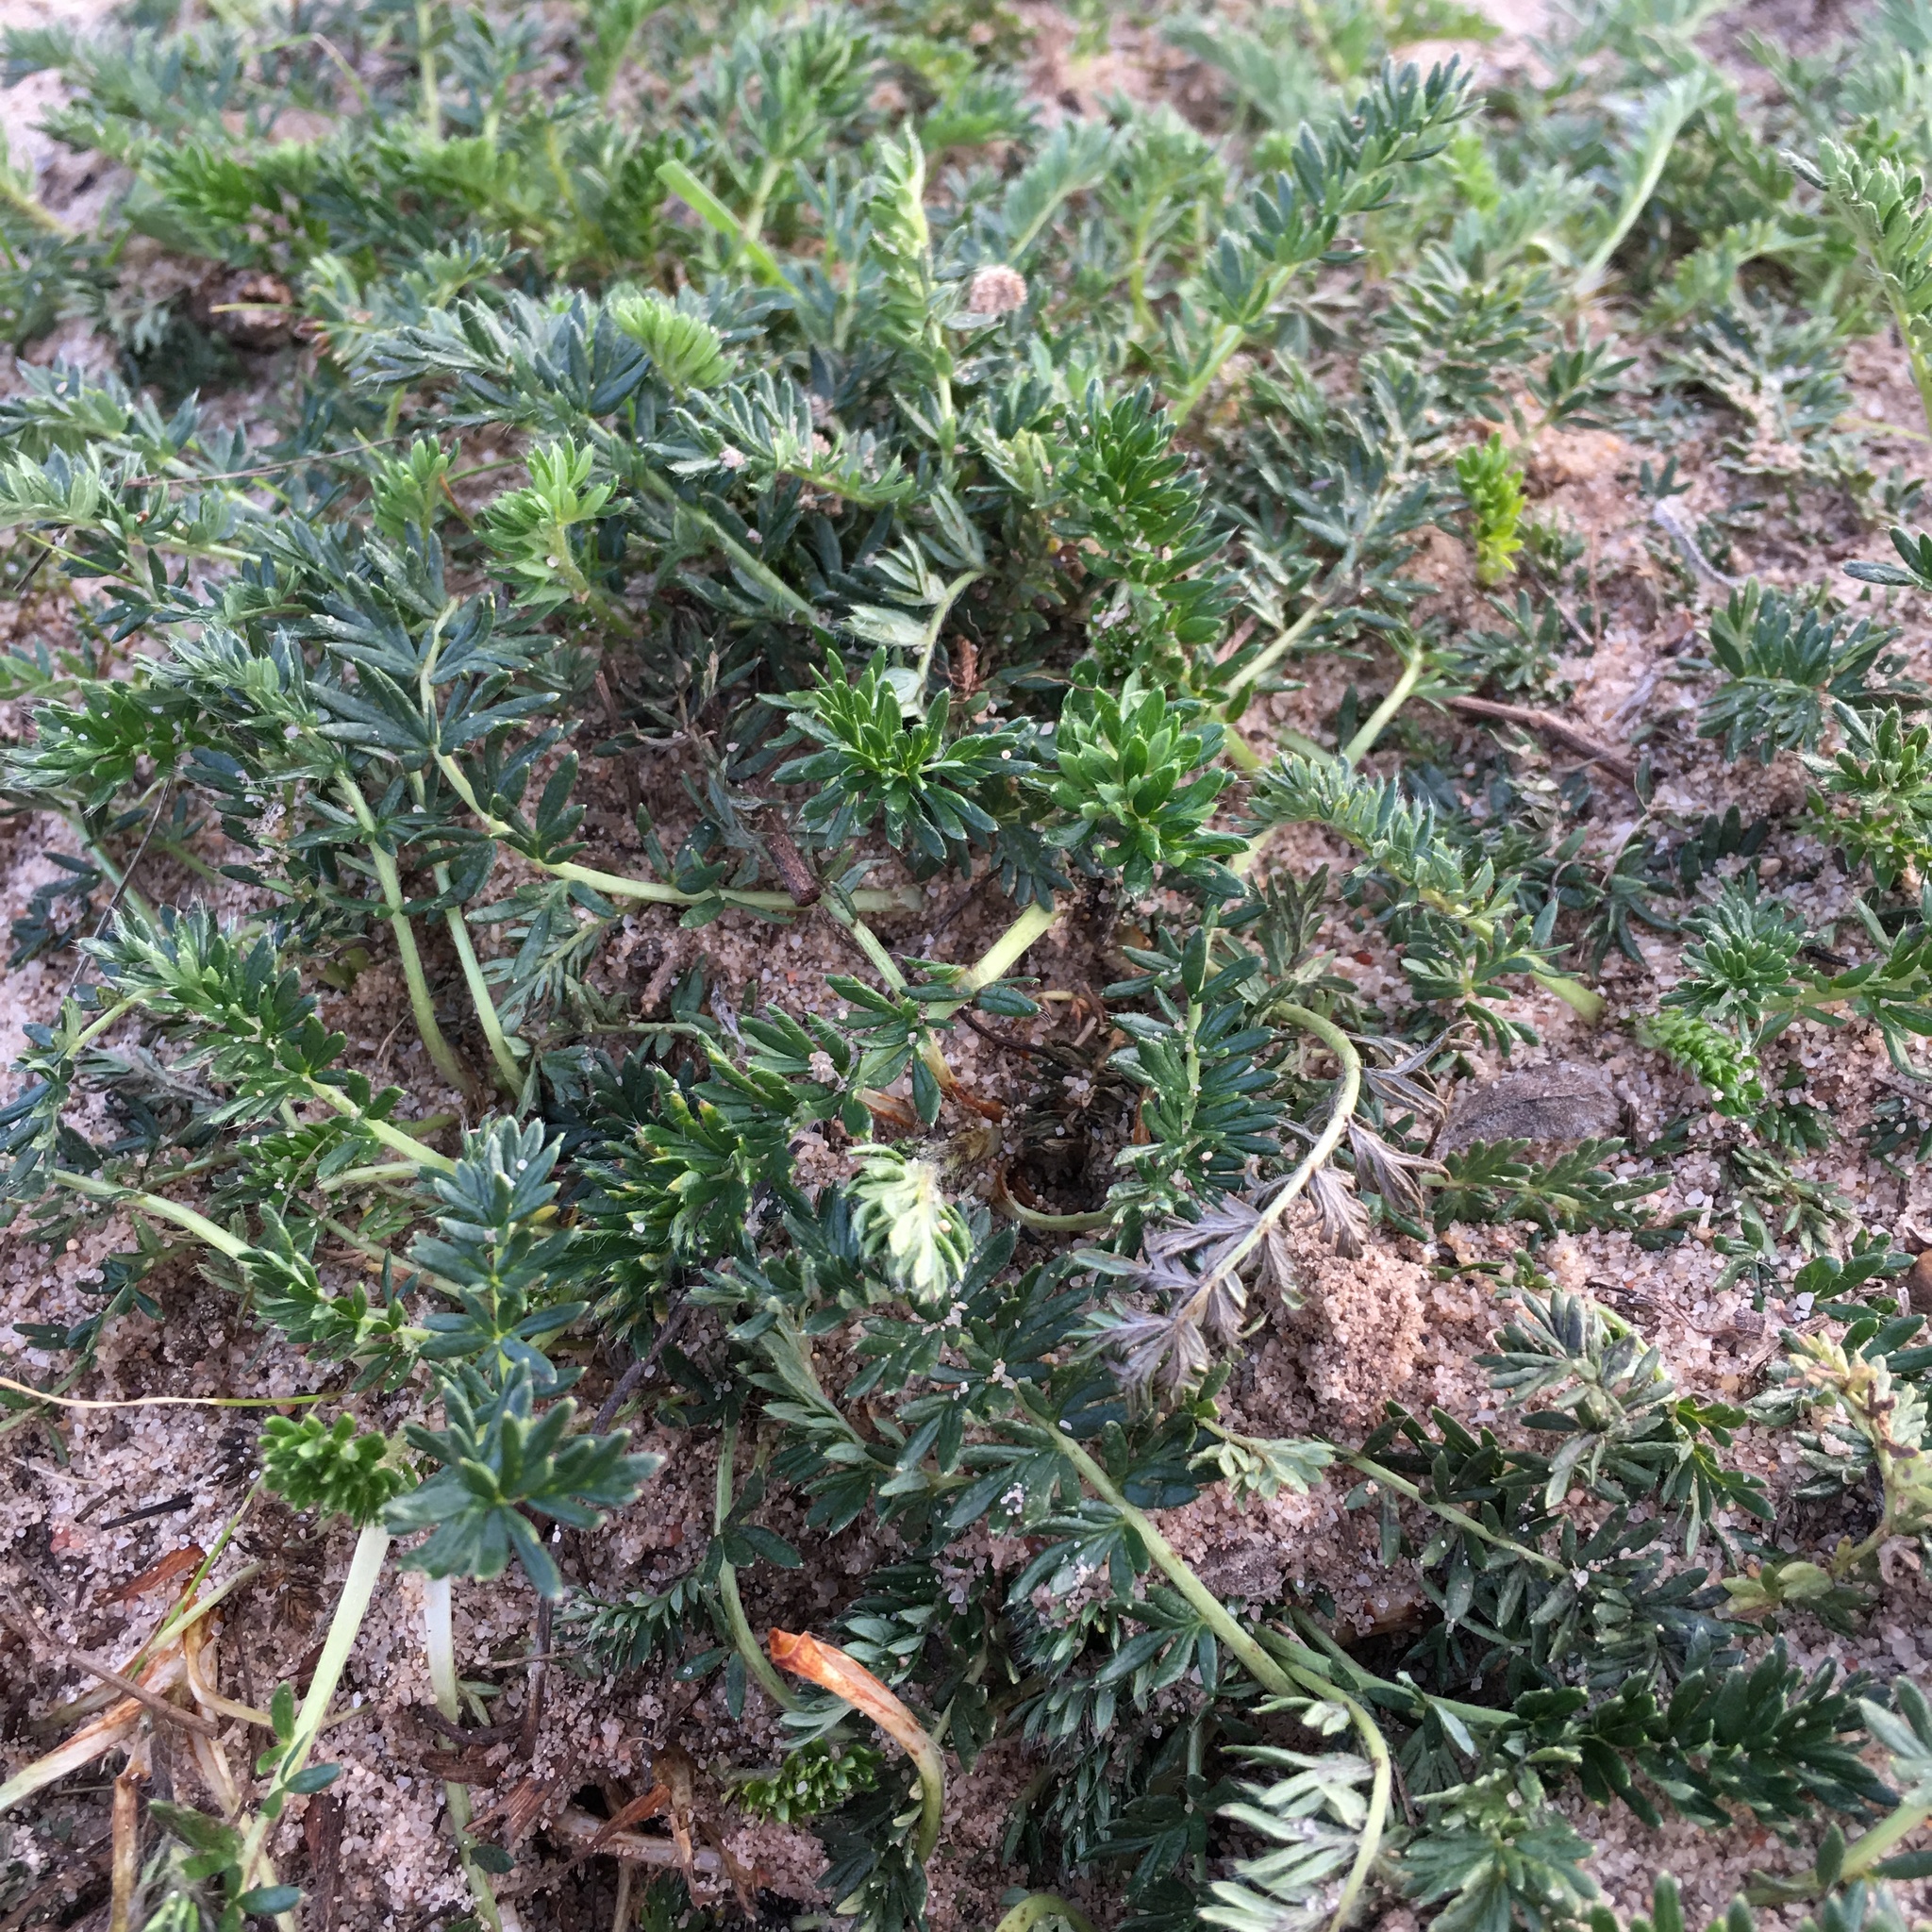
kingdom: Plantae
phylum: Tracheophyta
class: Magnoliopsida
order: Rosales
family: Rosaceae
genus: Acaena
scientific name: Acaena pinnatifida
